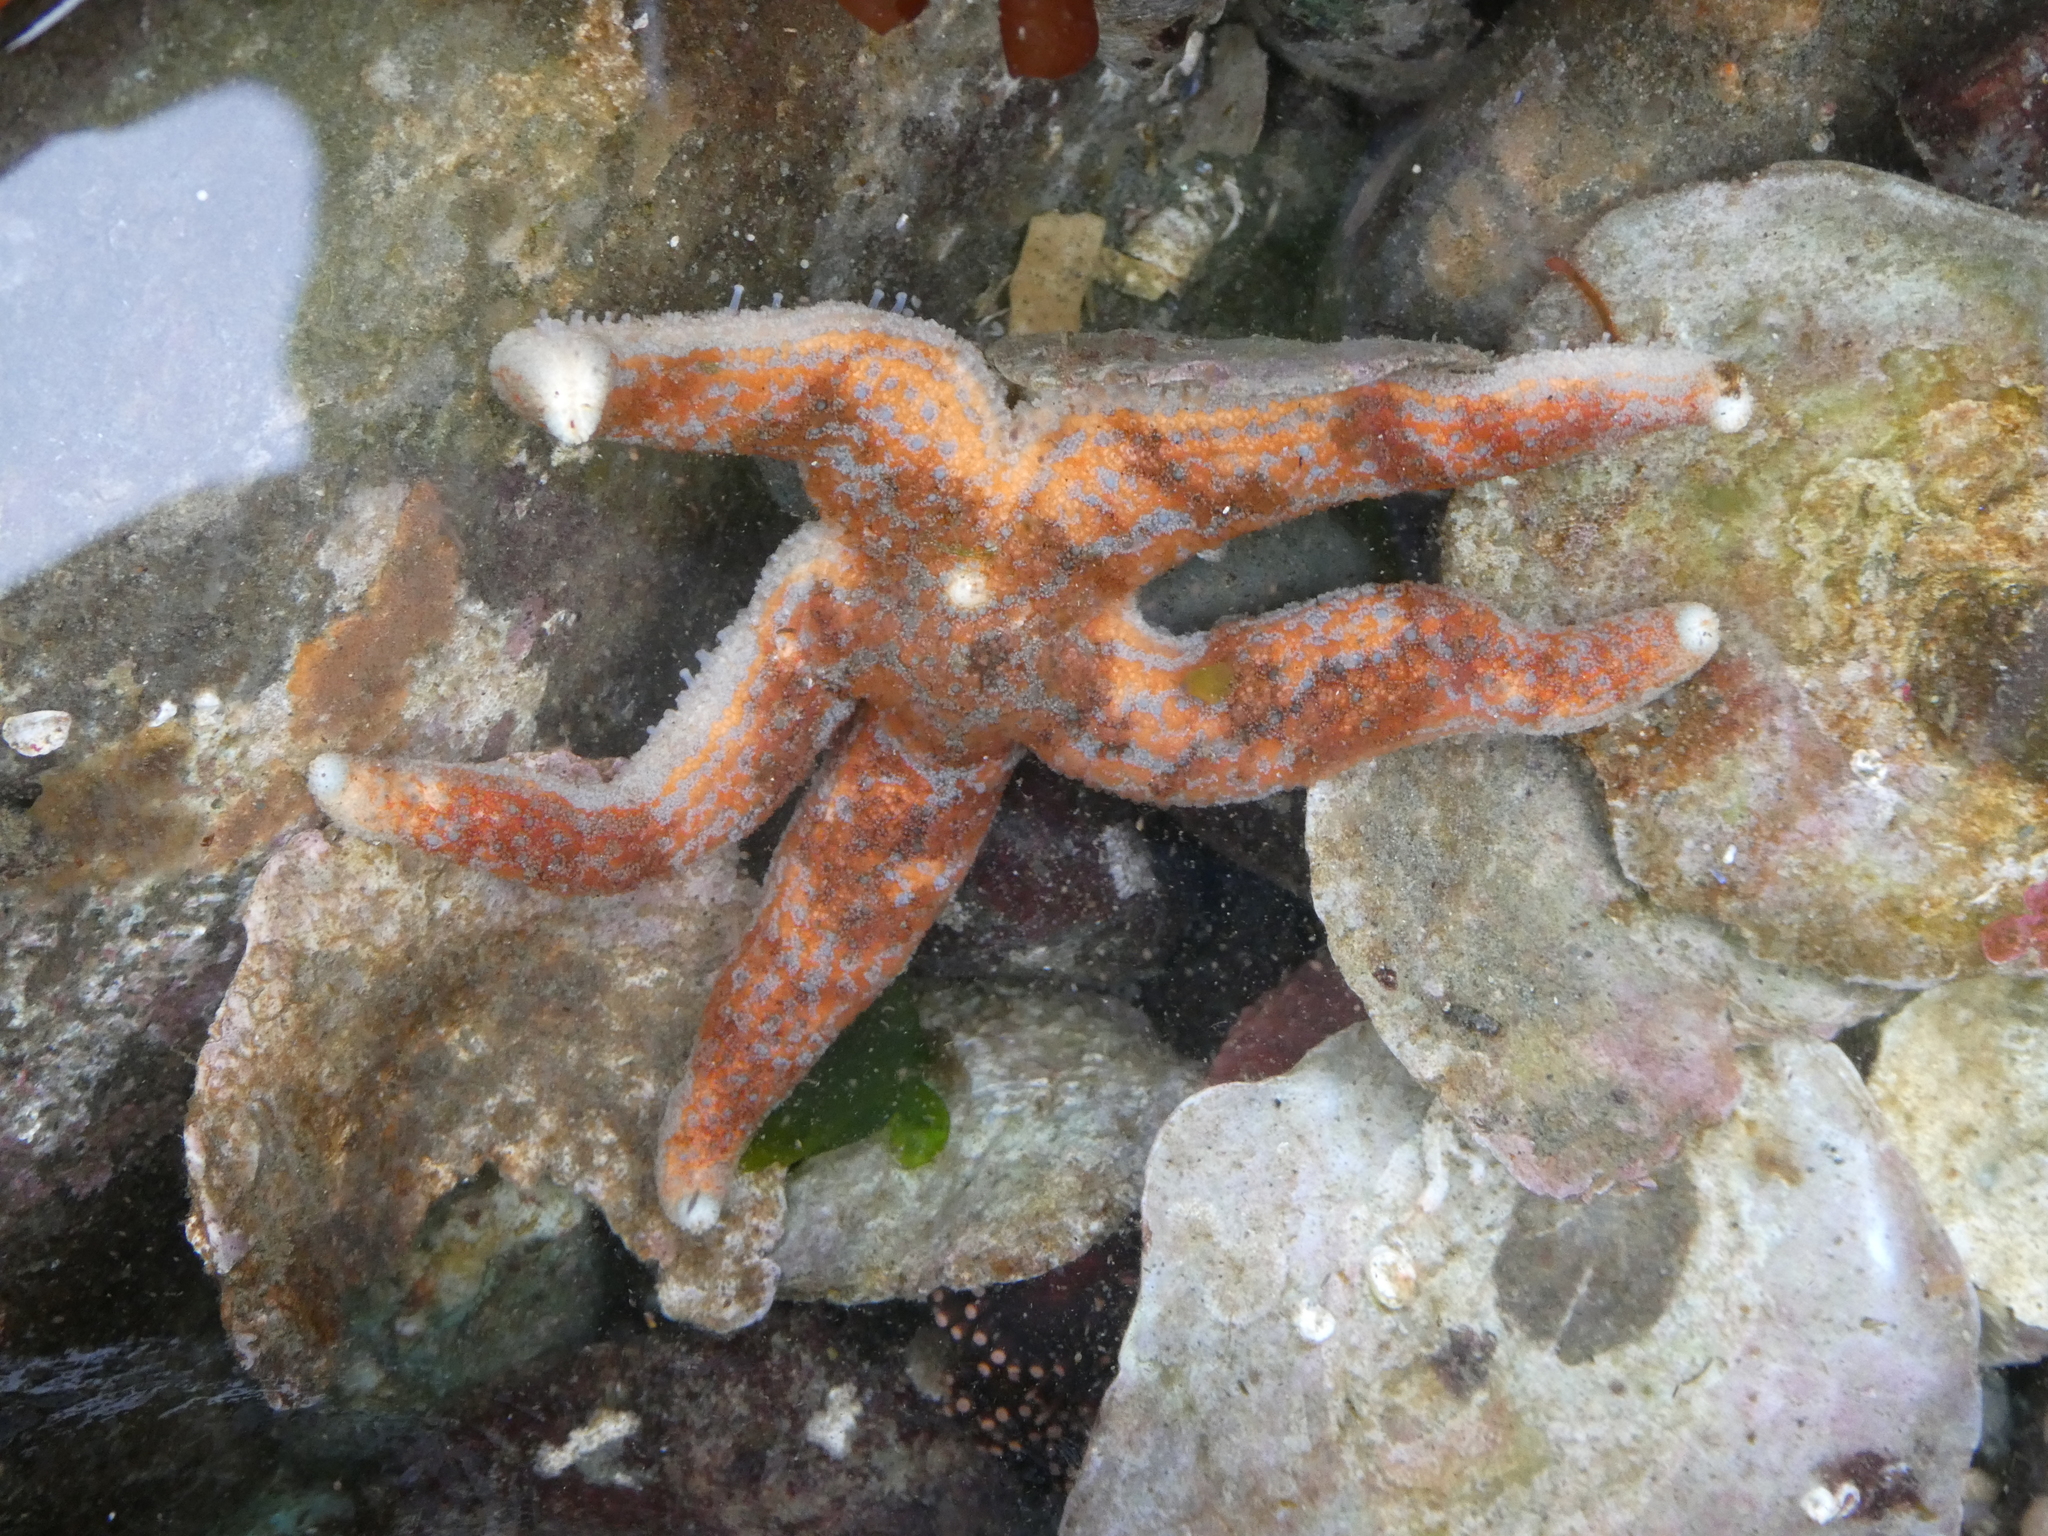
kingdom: Animalia
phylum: Echinodermata
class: Asteroidea
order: Forcipulatida
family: Asteriidae
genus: Evasterias
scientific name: Evasterias troschelii
